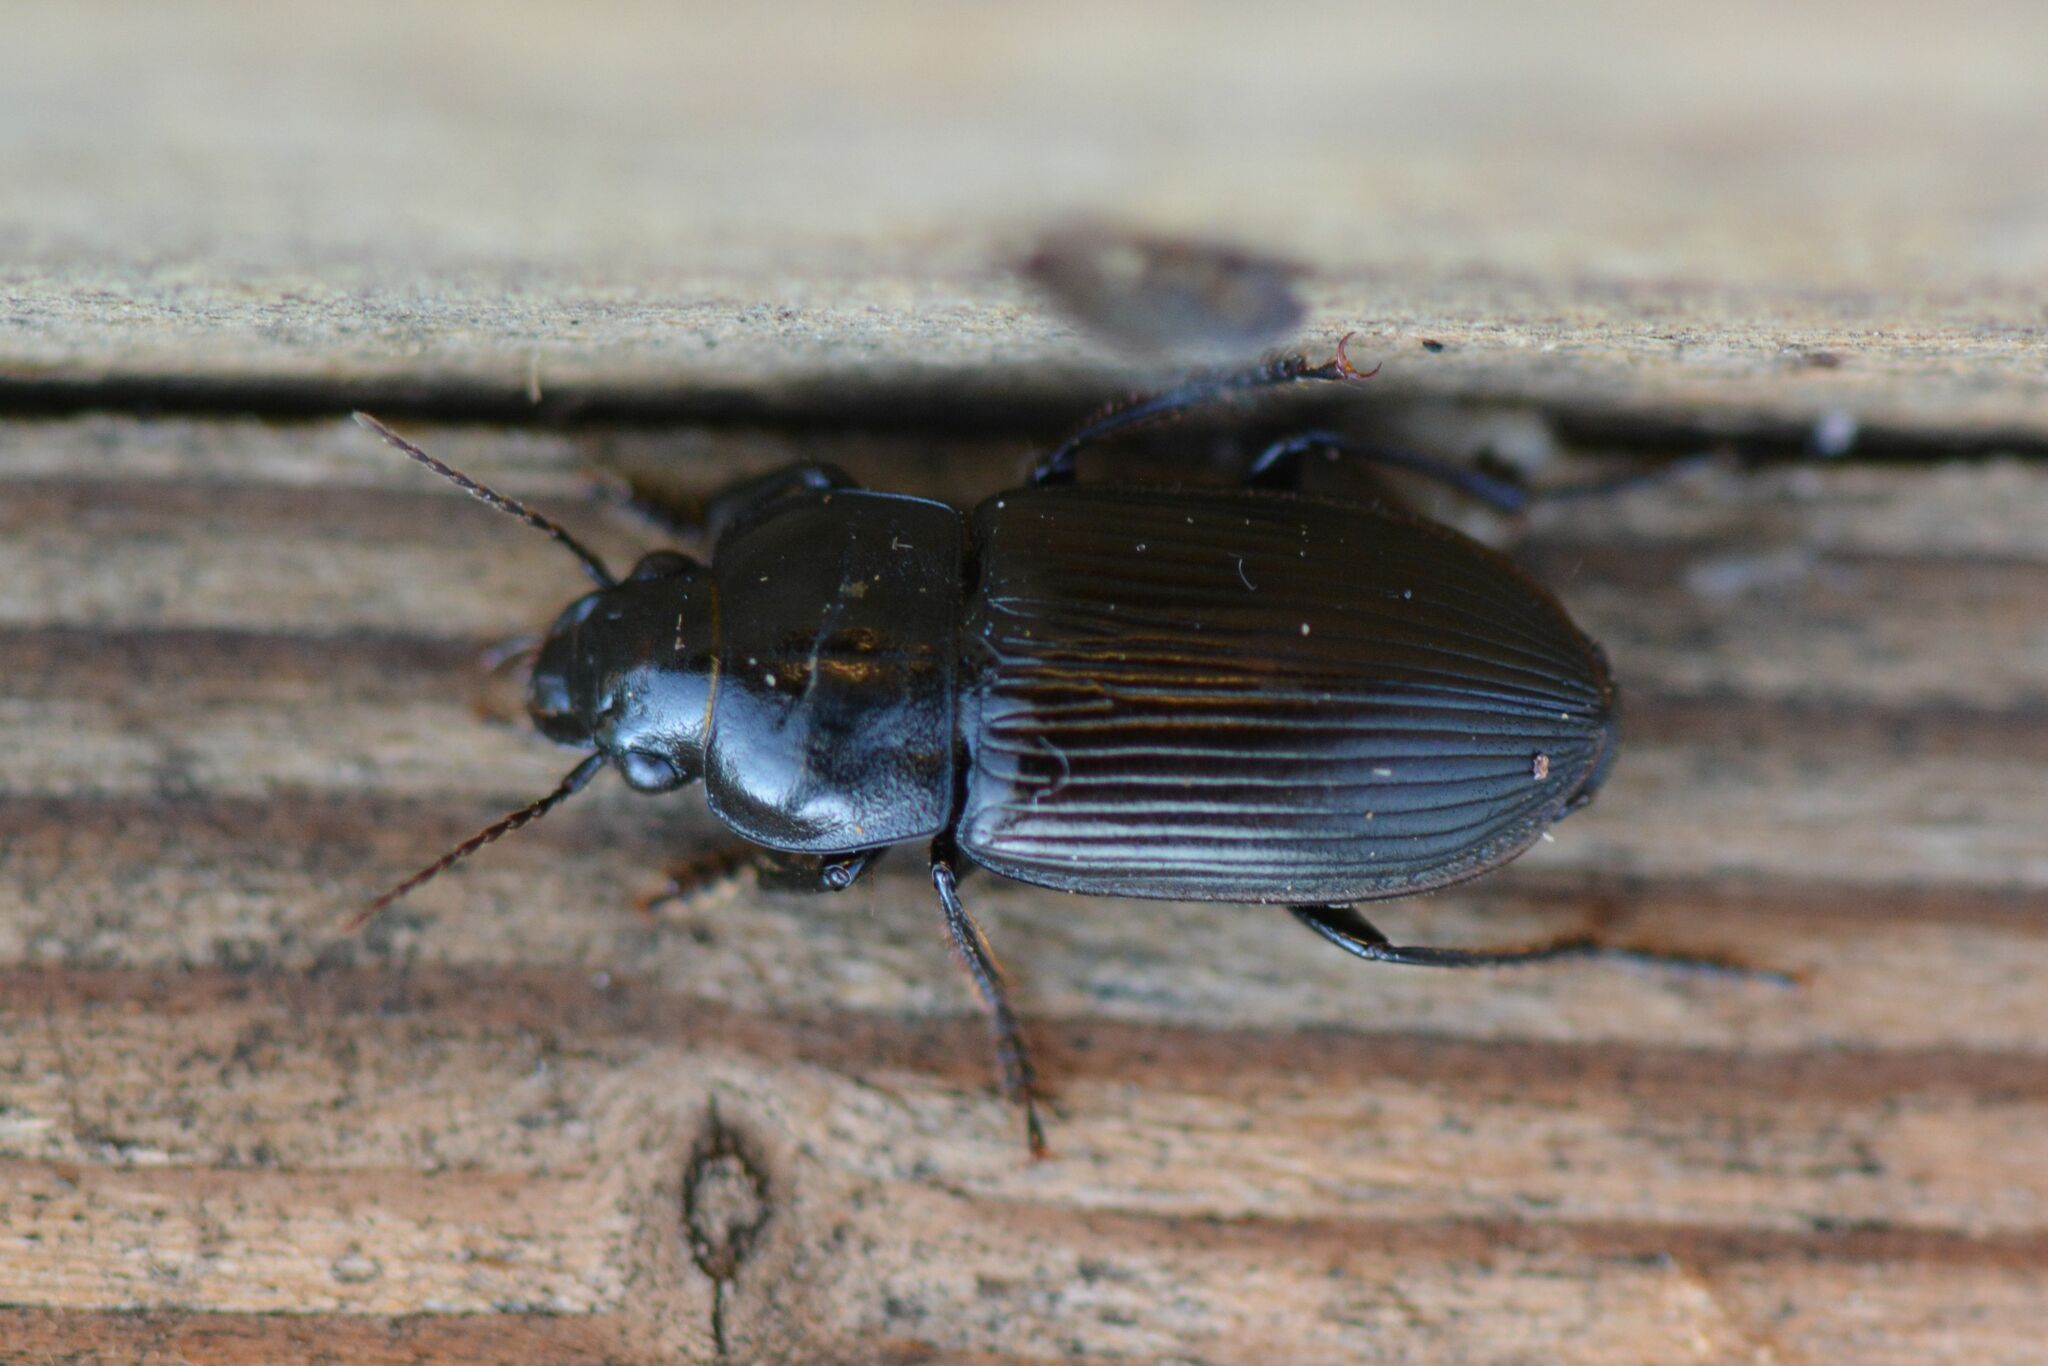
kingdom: Animalia
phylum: Arthropoda
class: Insecta
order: Coleoptera
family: Carabidae
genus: Anisodactylus
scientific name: Anisodactylus signatus
